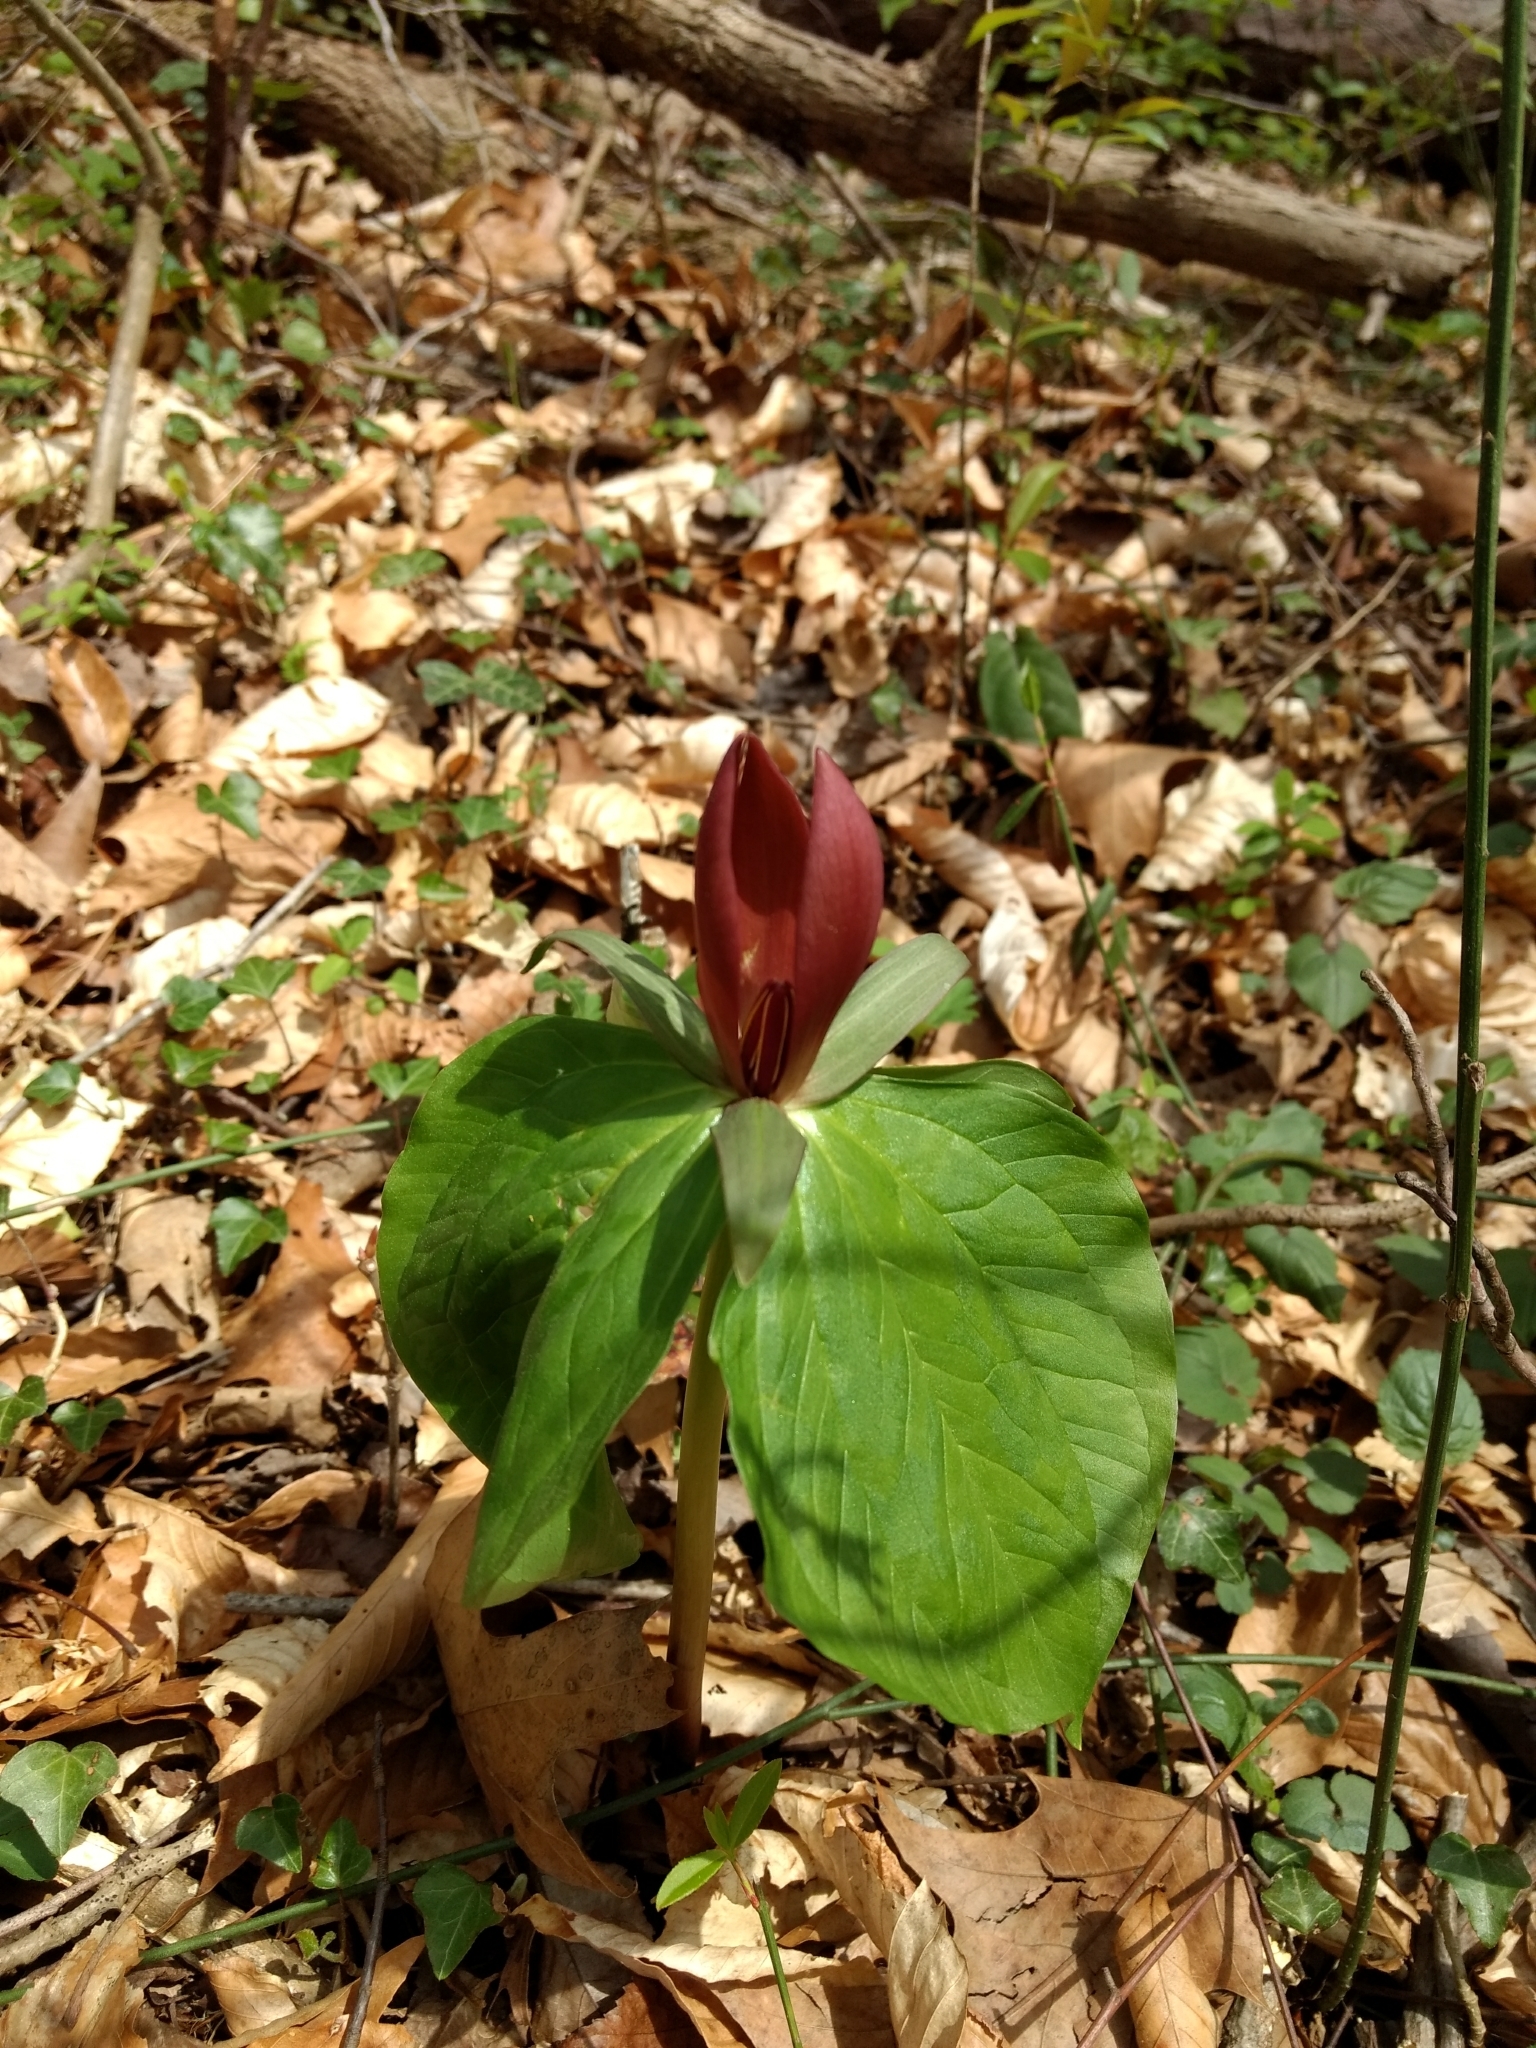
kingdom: Plantae
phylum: Tracheophyta
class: Liliopsida
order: Liliales
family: Melanthiaceae
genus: Trillium
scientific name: Trillium cuneatum
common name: Cuneate trillium
